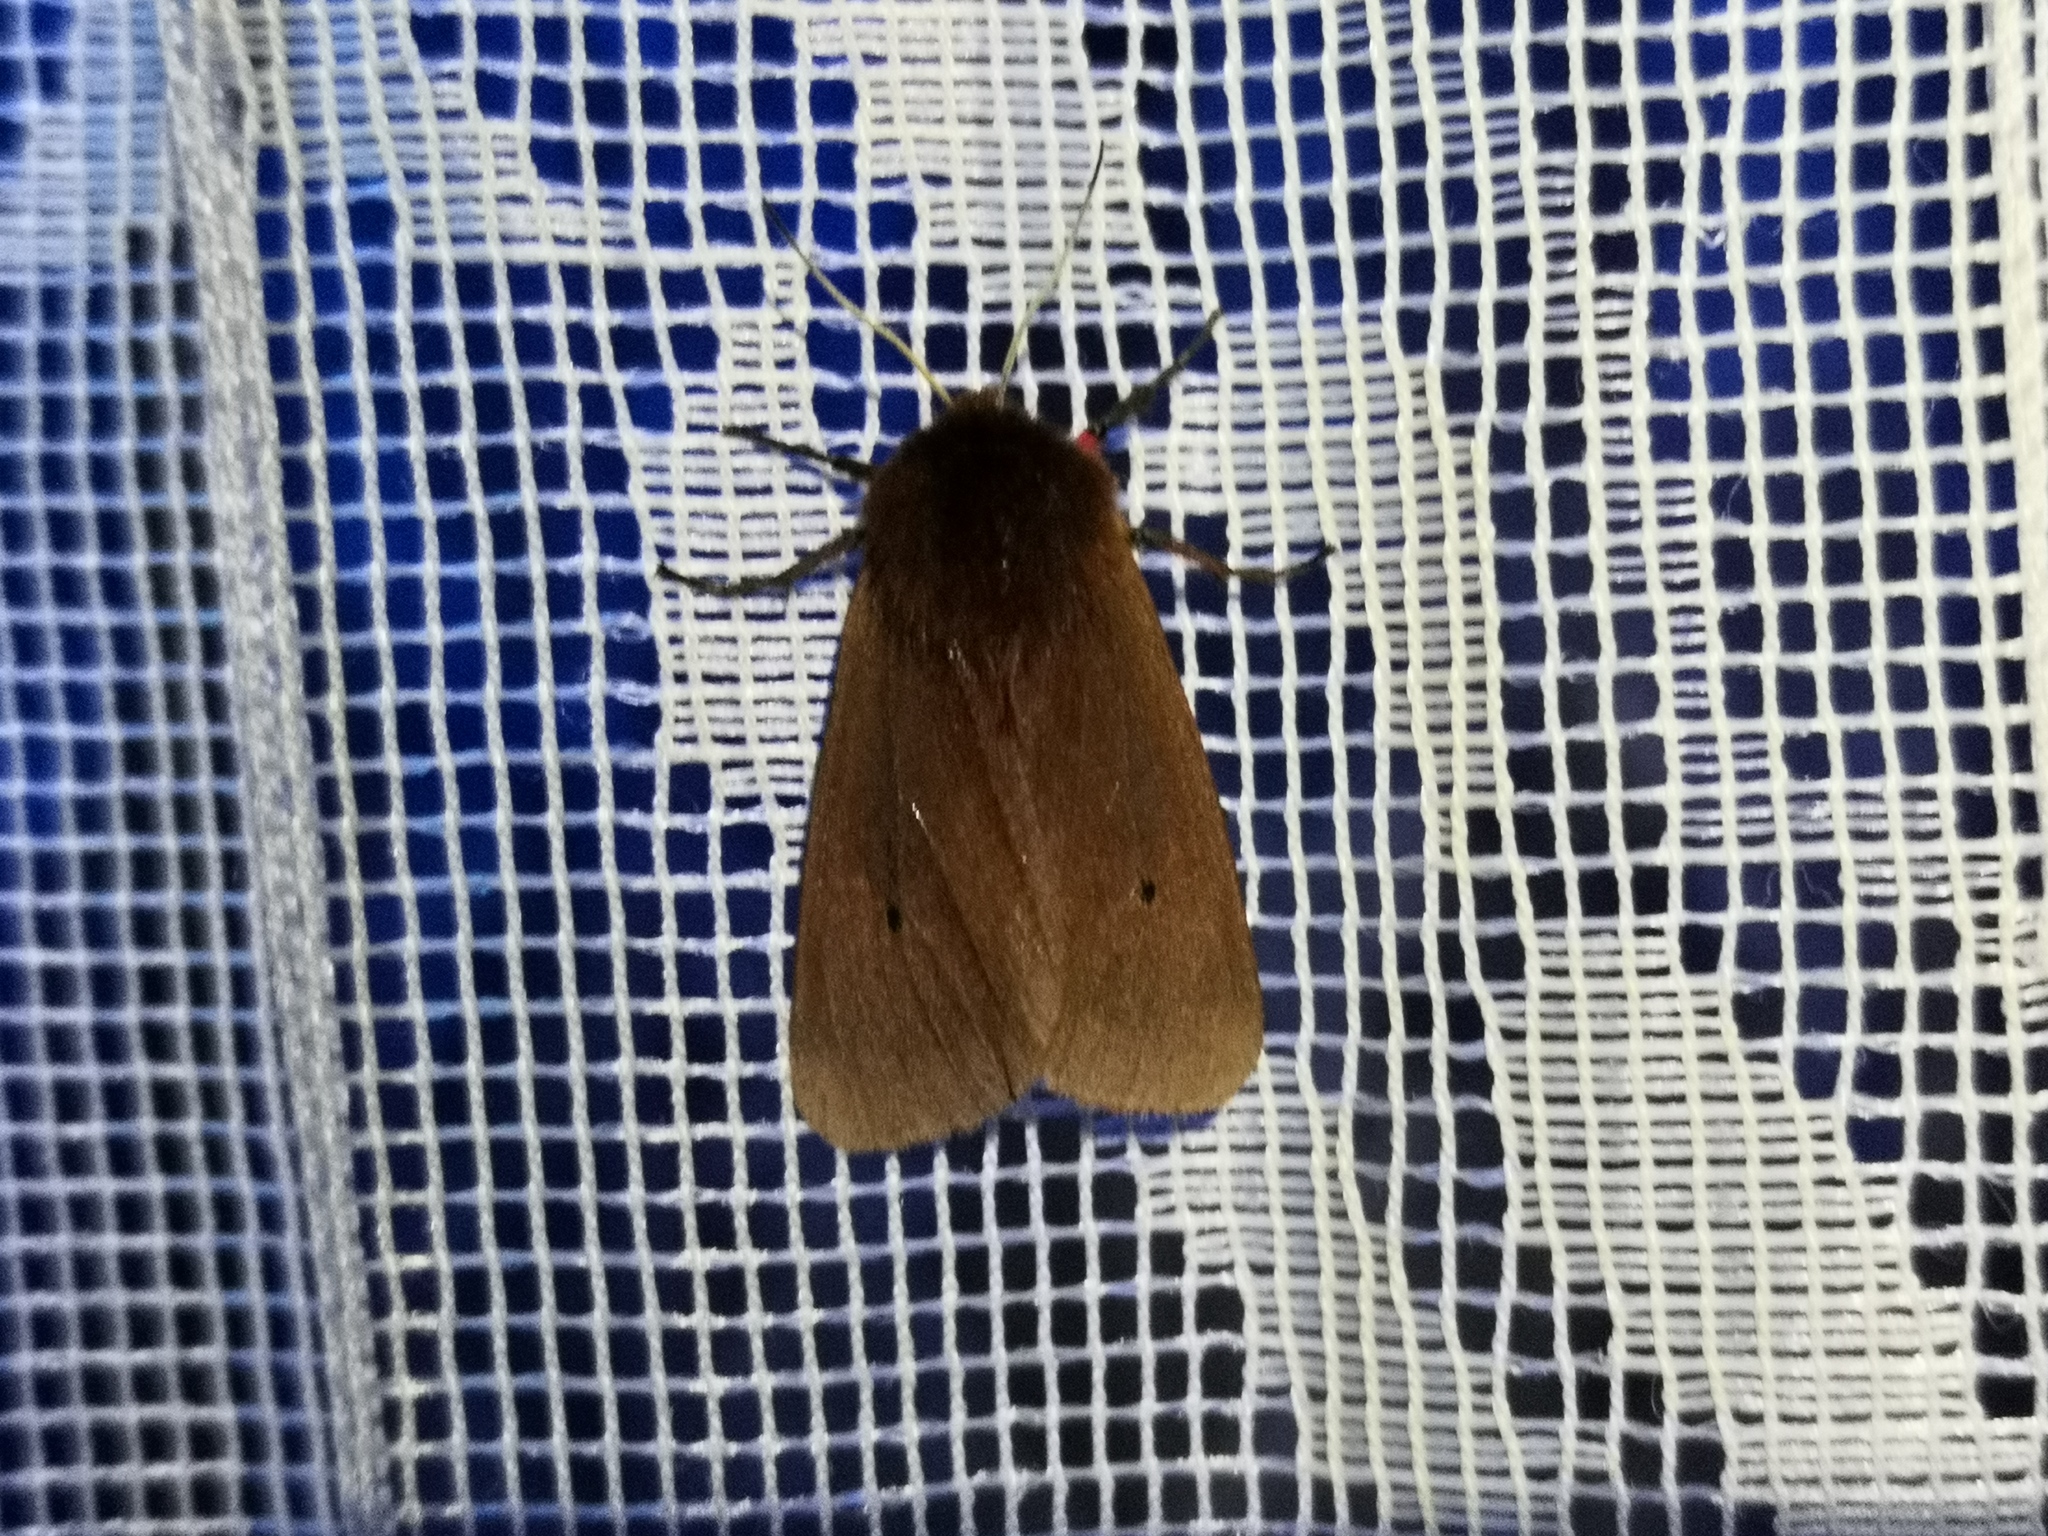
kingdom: Animalia
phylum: Arthropoda
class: Insecta
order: Lepidoptera
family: Erebidae
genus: Phragmatobia
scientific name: Phragmatobia fuliginosa
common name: Ruby tiger
